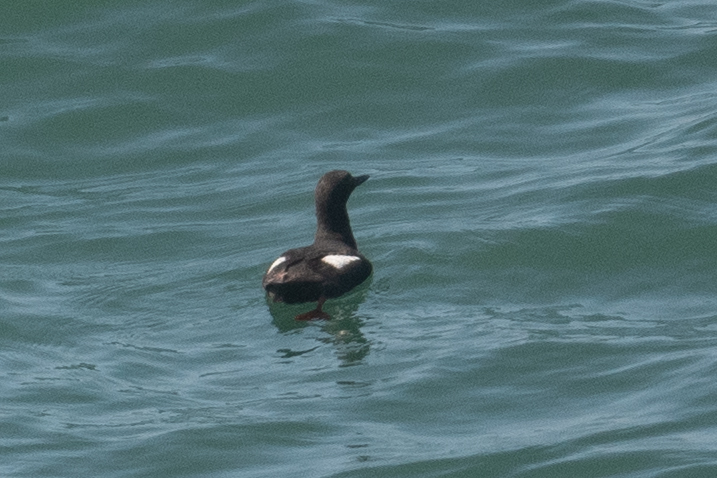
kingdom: Animalia
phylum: Chordata
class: Aves
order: Charadriiformes
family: Alcidae
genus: Cepphus
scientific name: Cepphus columba
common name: Pigeon guillemot
